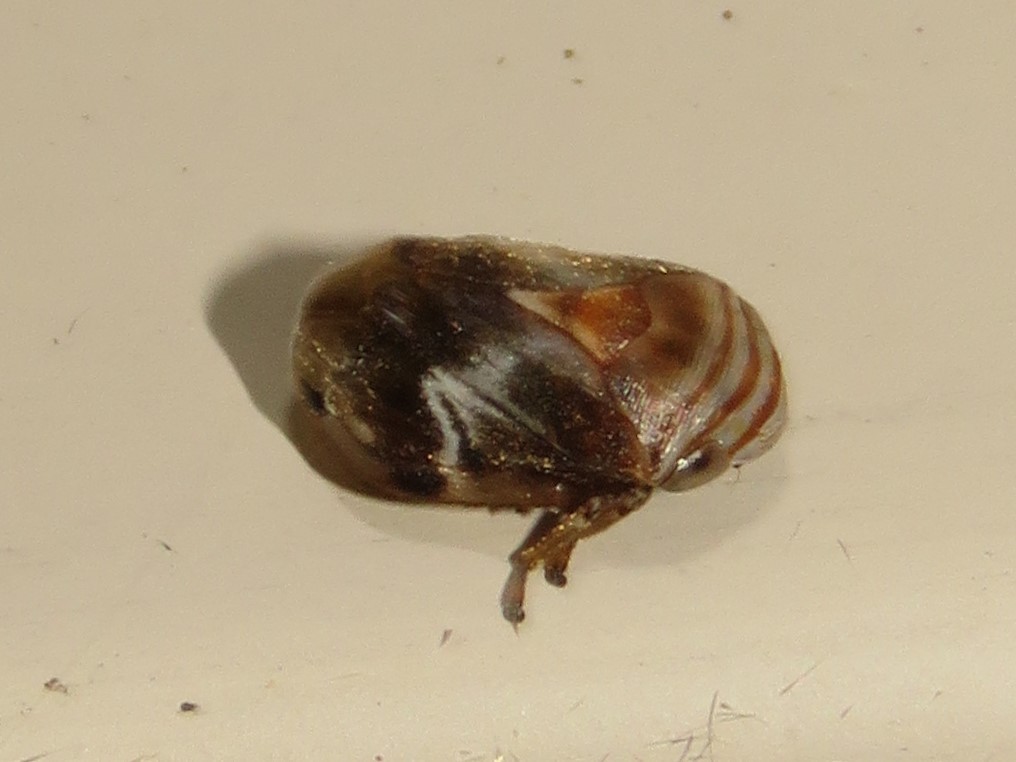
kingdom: Animalia
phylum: Arthropoda
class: Insecta
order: Hemiptera
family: Clastopteridae
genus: Clastoptera
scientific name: Clastoptera obtusa
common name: Alder spittlebug
